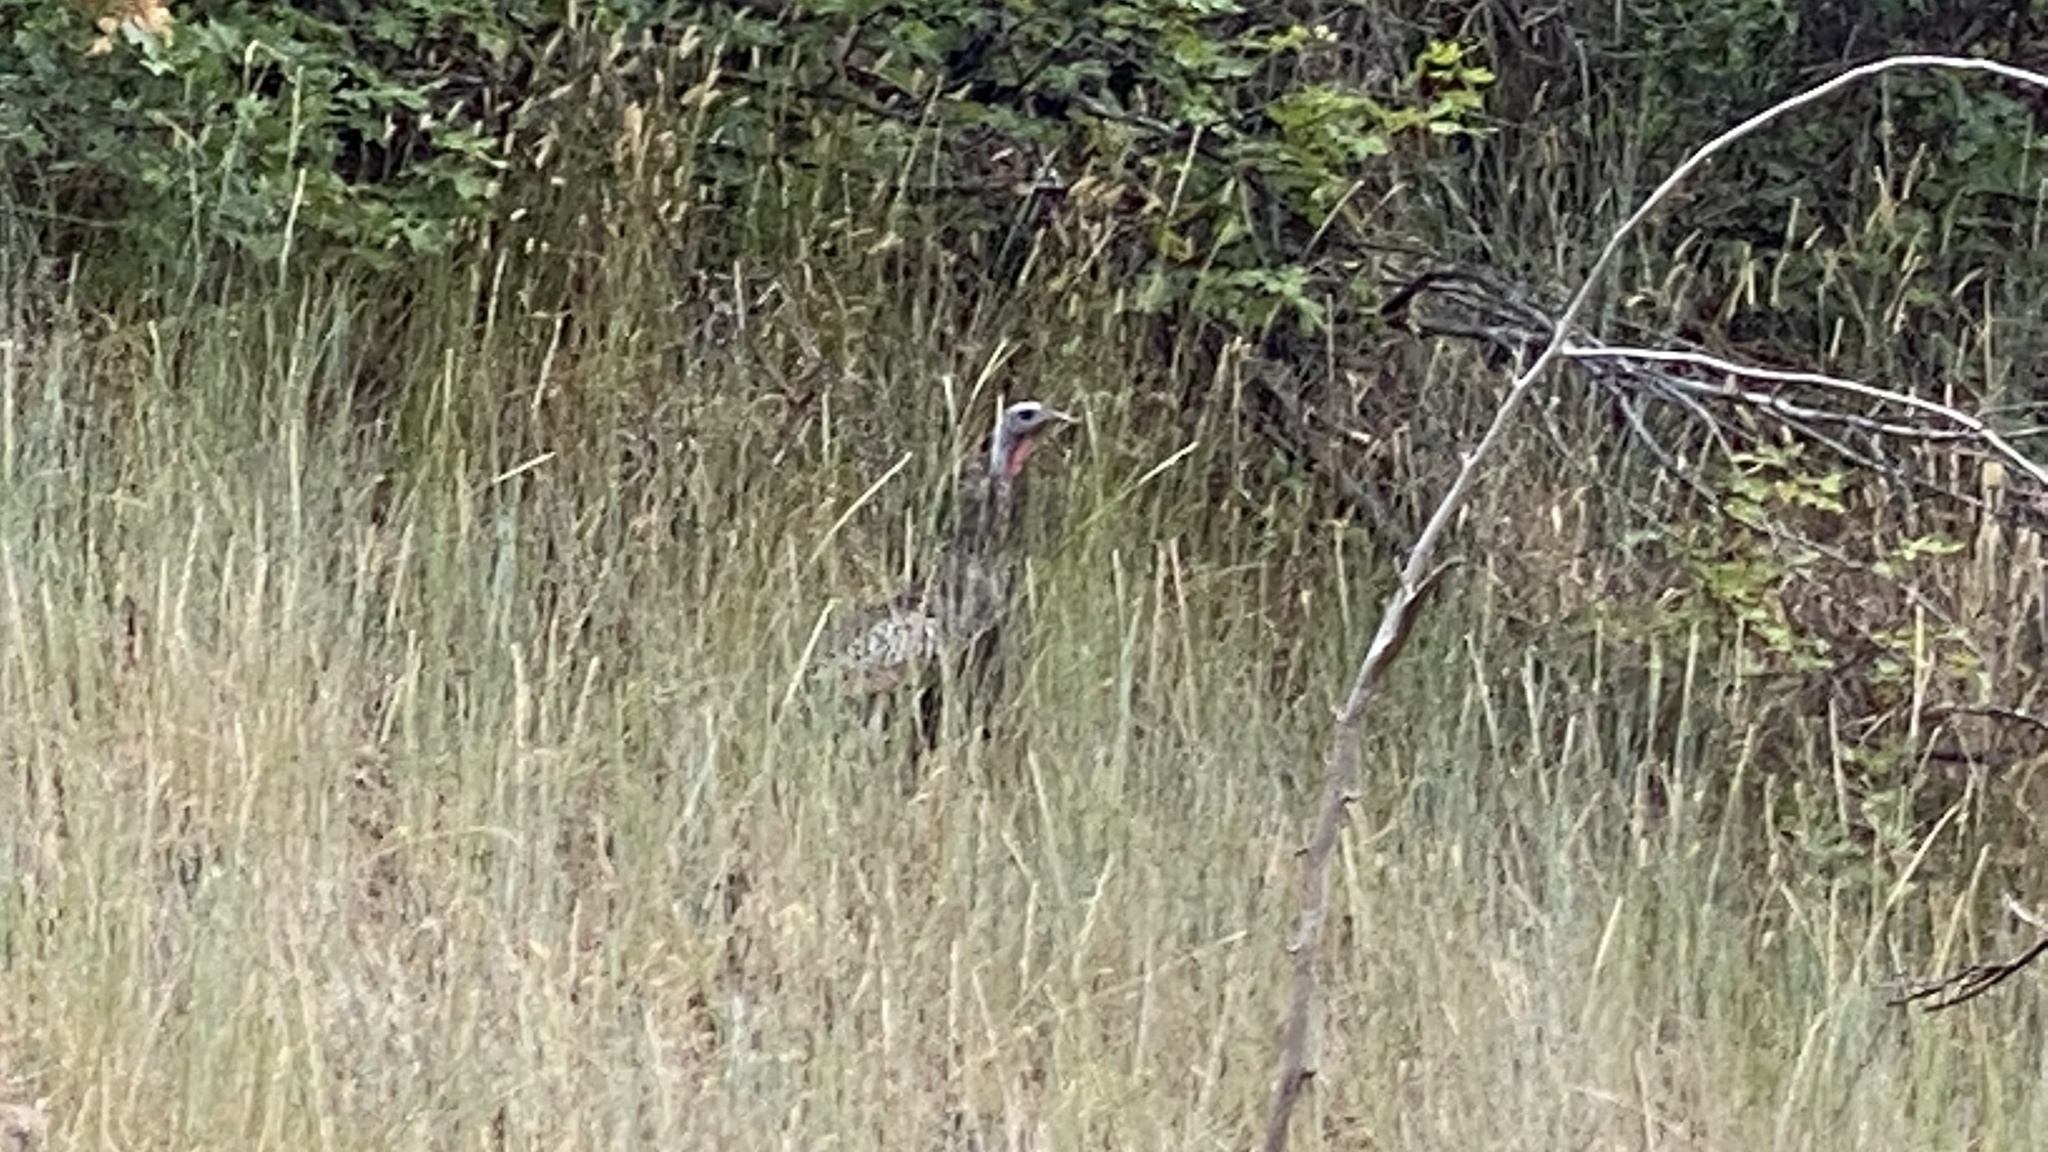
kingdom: Animalia
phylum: Chordata
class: Aves
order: Galliformes
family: Phasianidae
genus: Meleagris
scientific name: Meleagris gallopavo
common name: Wild turkey
